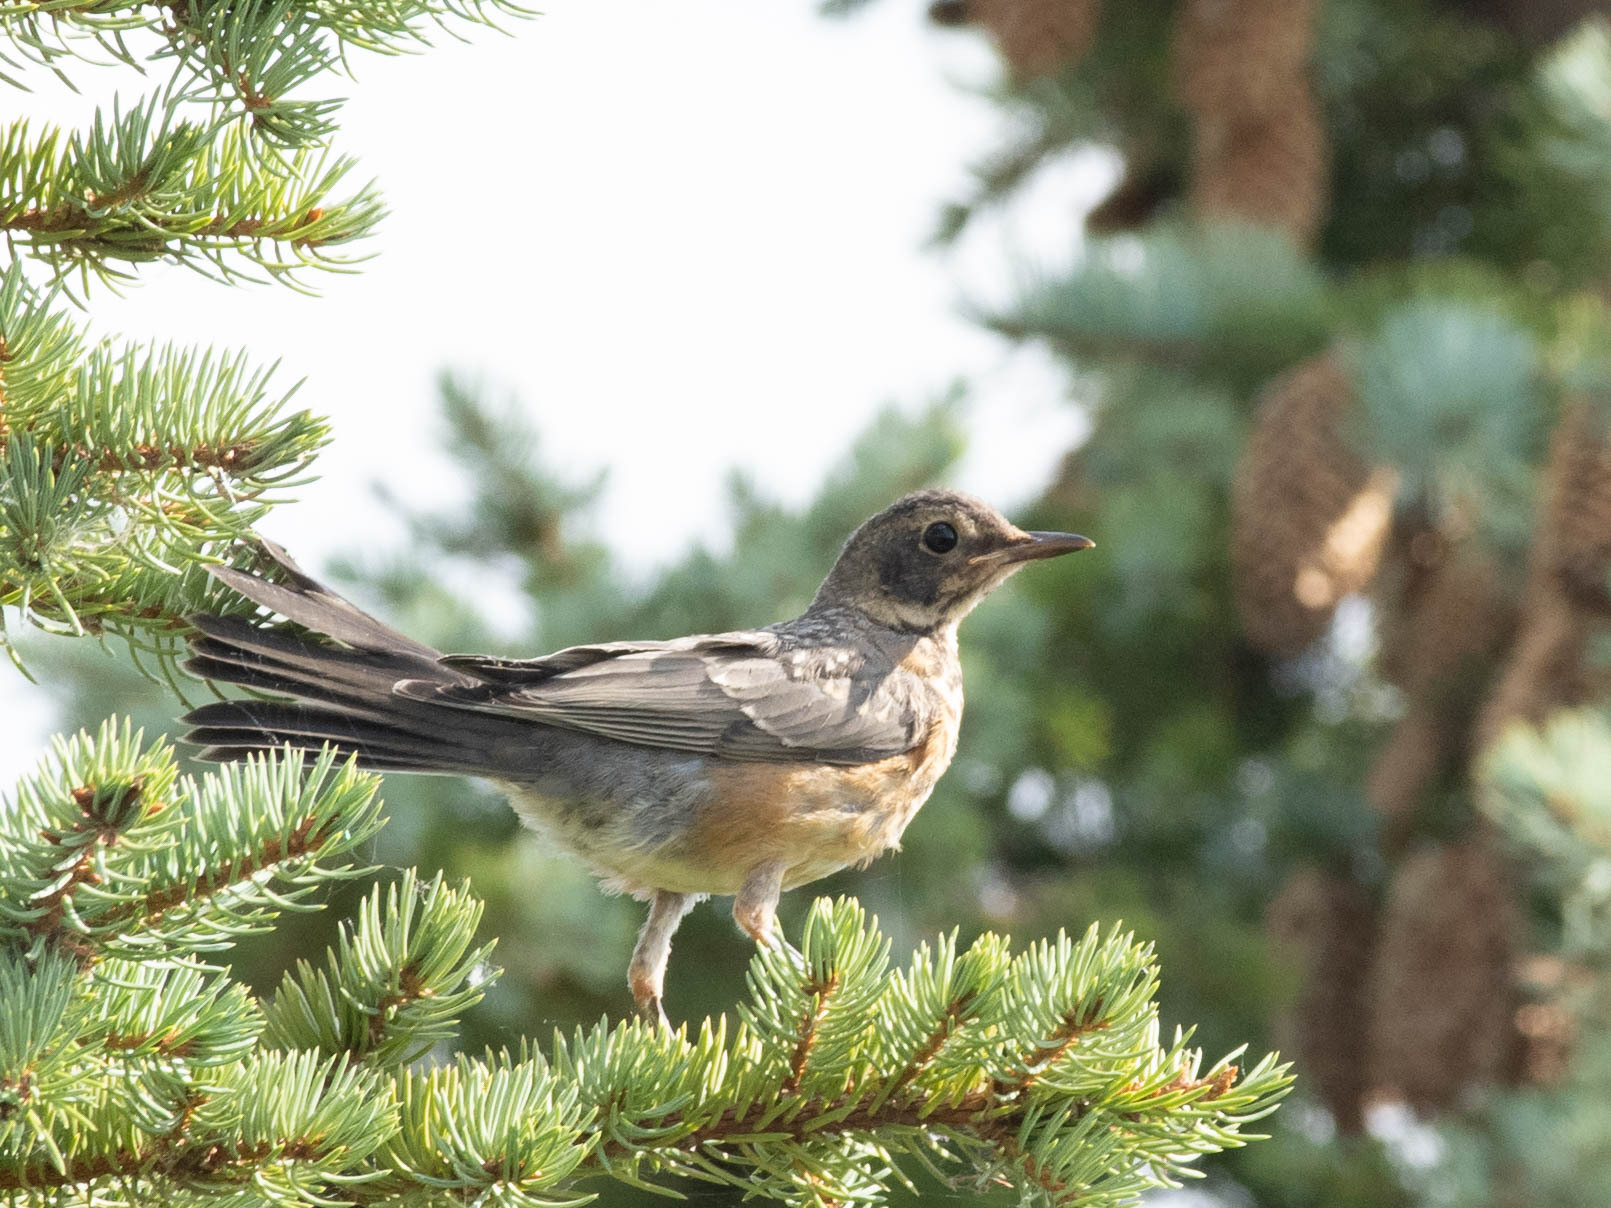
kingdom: Animalia
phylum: Chordata
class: Aves
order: Passeriformes
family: Turdidae
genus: Turdus
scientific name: Turdus migratorius
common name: American robin
